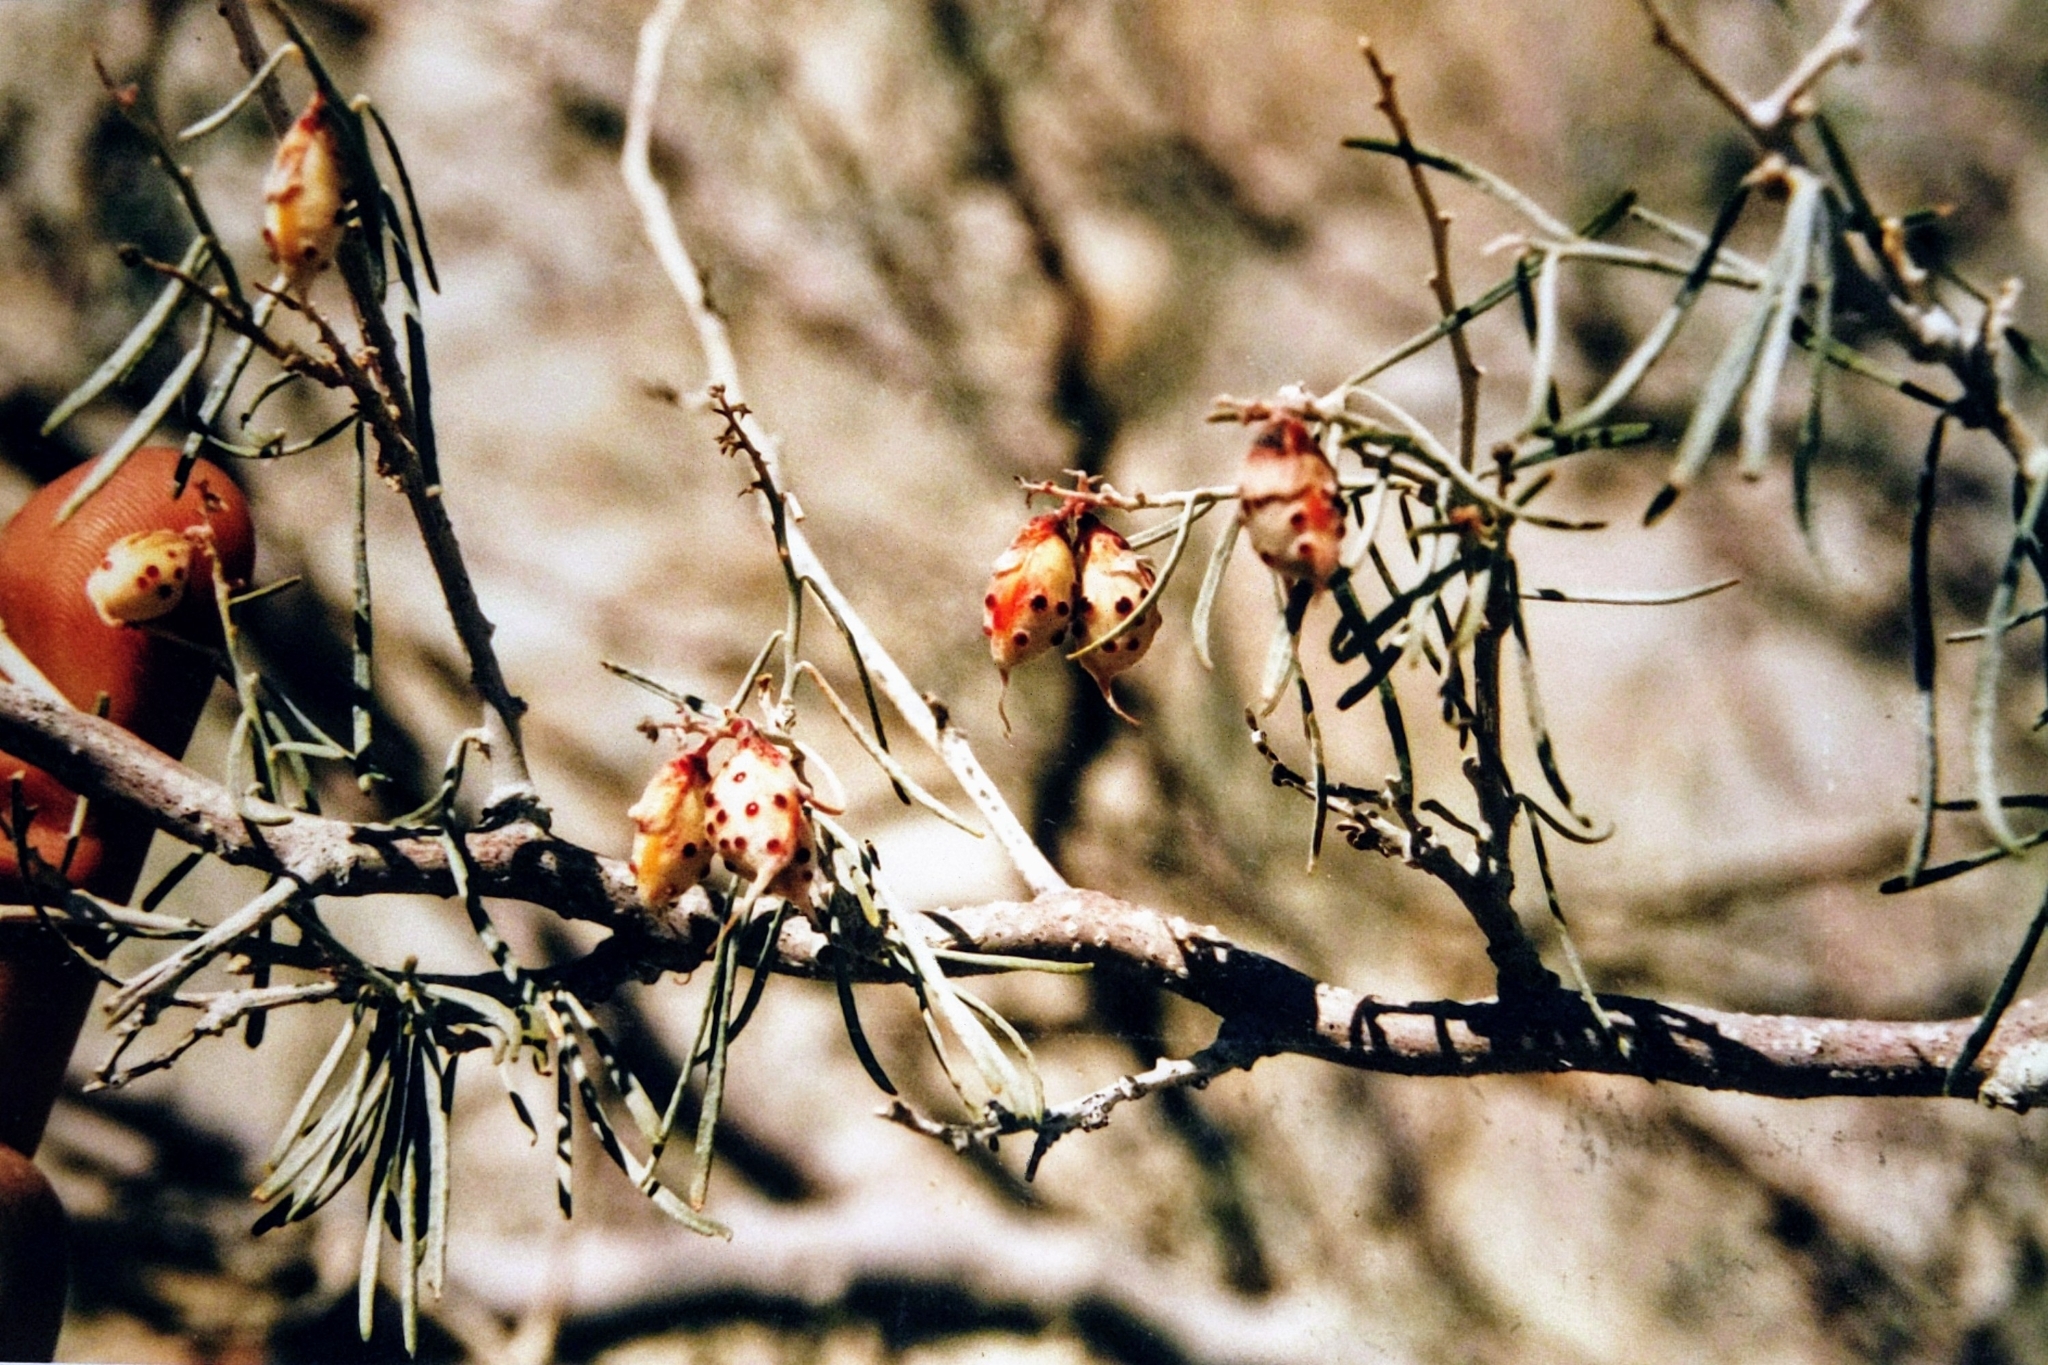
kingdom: Plantae
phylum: Tracheophyta
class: Magnoliopsida
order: Fabales
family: Fabaceae
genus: Psorothamnus
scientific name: Psorothamnus schottii
